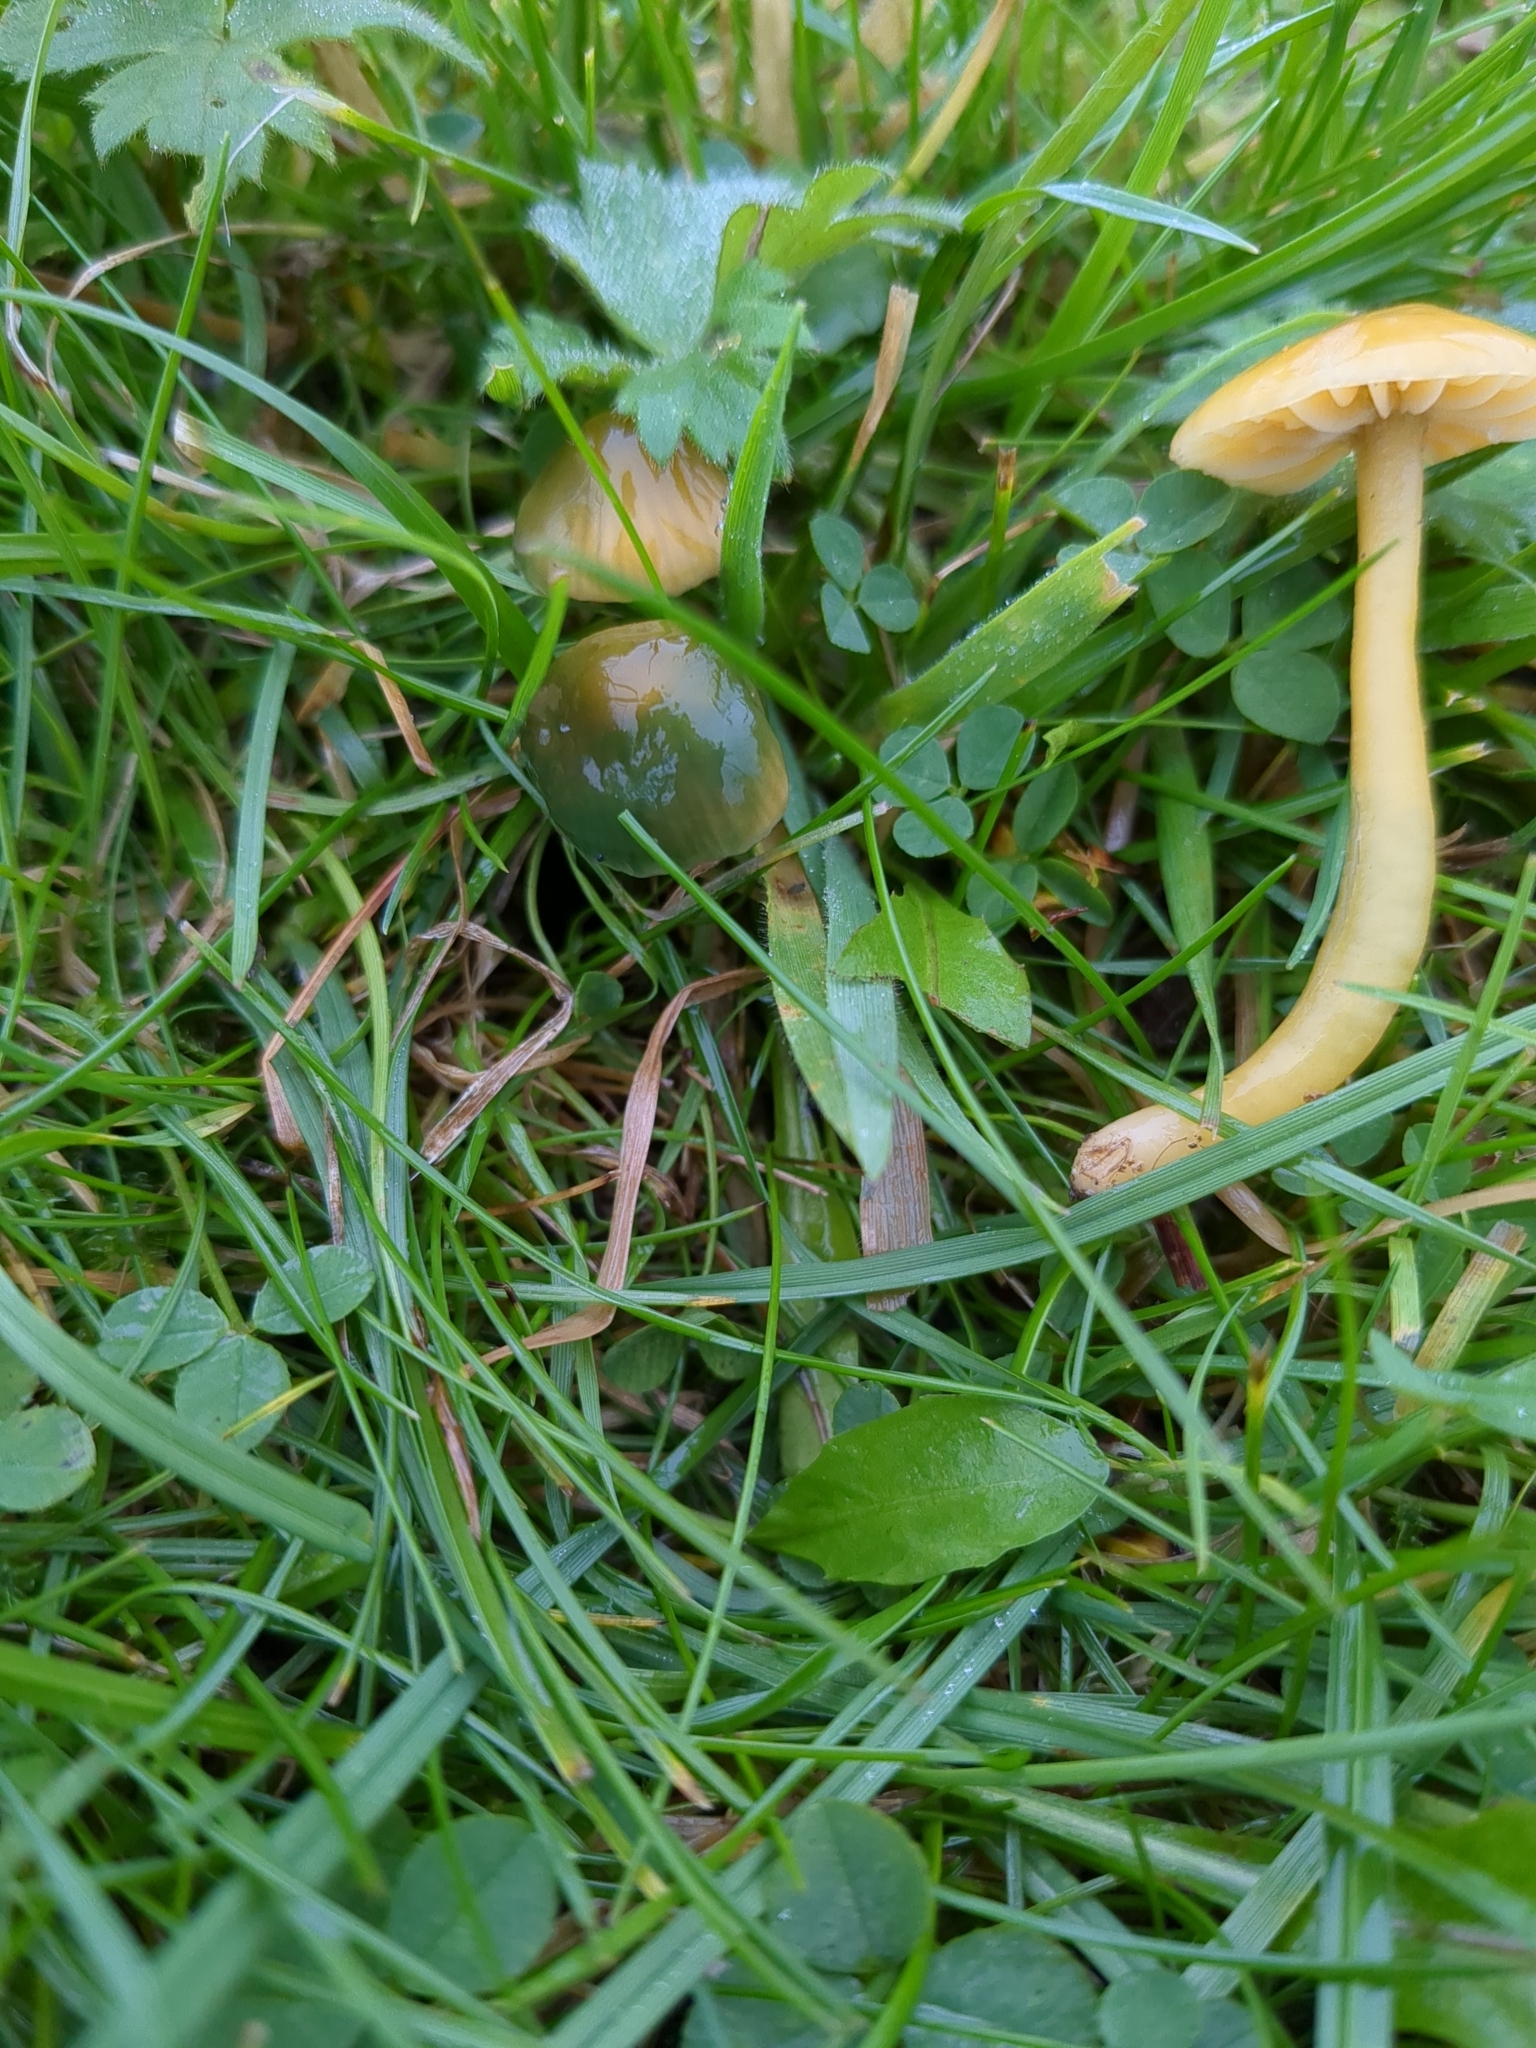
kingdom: Fungi
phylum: Basidiomycota
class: Agaricomycetes
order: Agaricales
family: Hygrophoraceae
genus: Gliophorus
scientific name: Gliophorus psittacinus
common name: Parrot wax-cap
